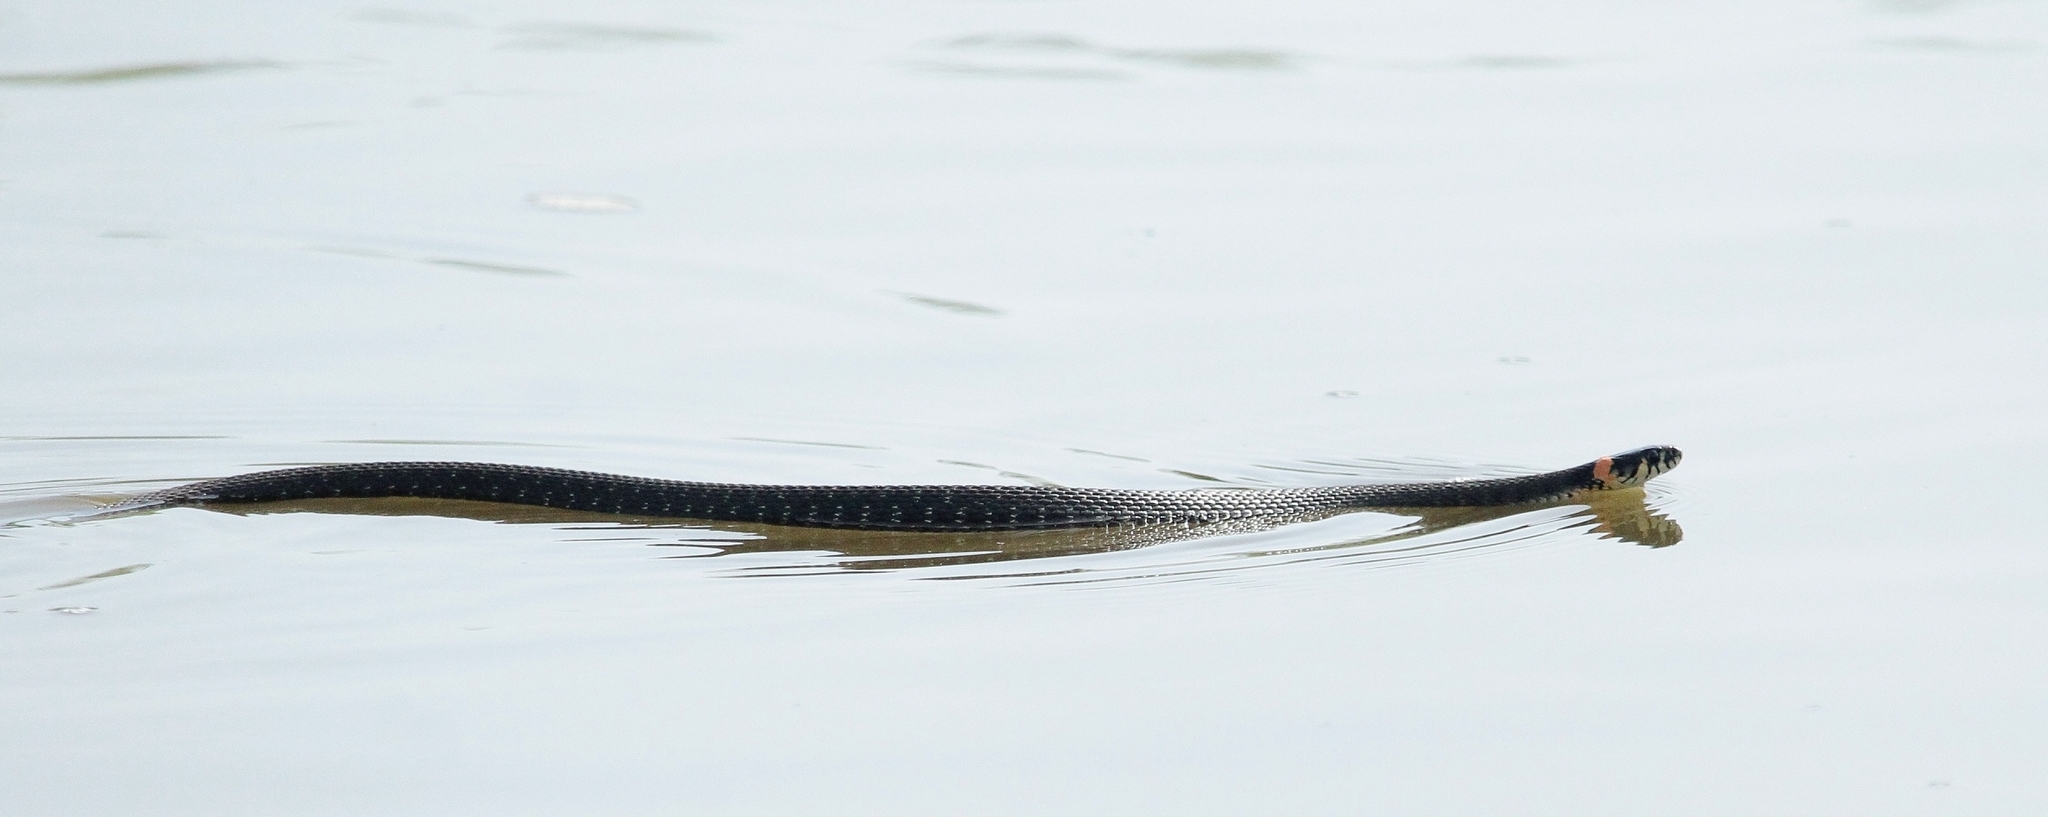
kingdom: Animalia
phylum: Chordata
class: Squamata
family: Colubridae
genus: Natrix
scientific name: Natrix natrix
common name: Grass snake
